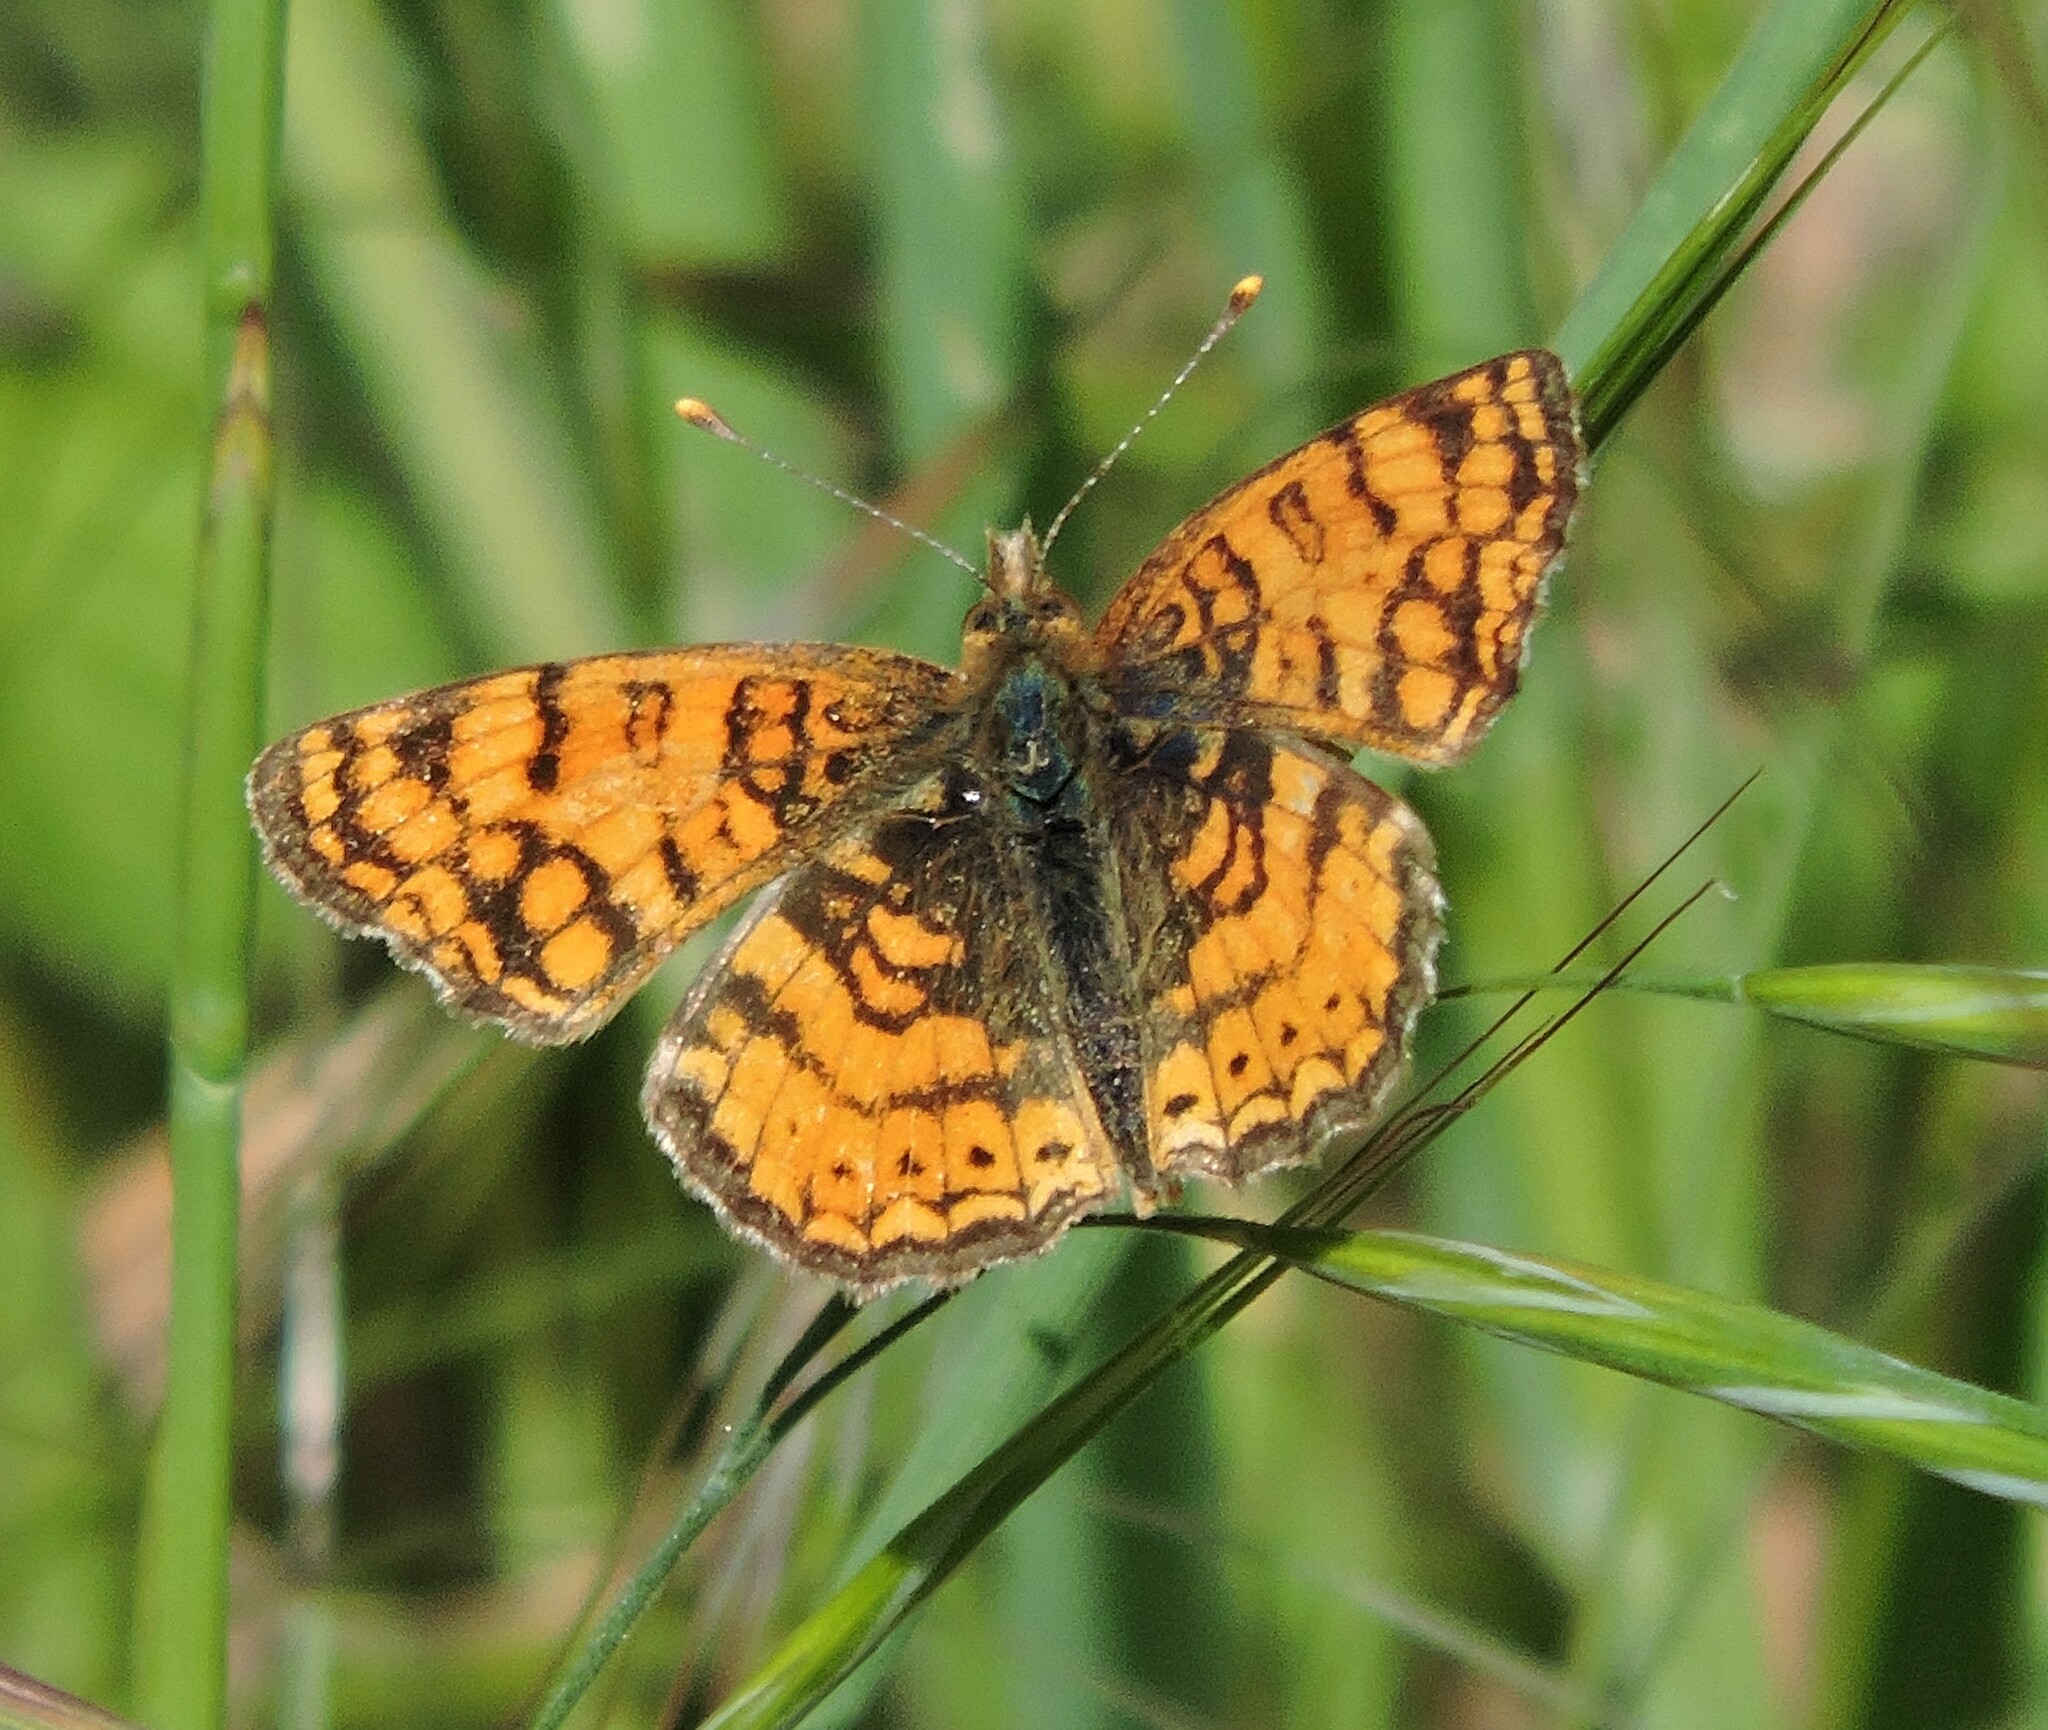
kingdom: Animalia
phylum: Arthropoda
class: Insecta
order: Lepidoptera
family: Nymphalidae
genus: Eresia
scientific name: Eresia aveyrona
